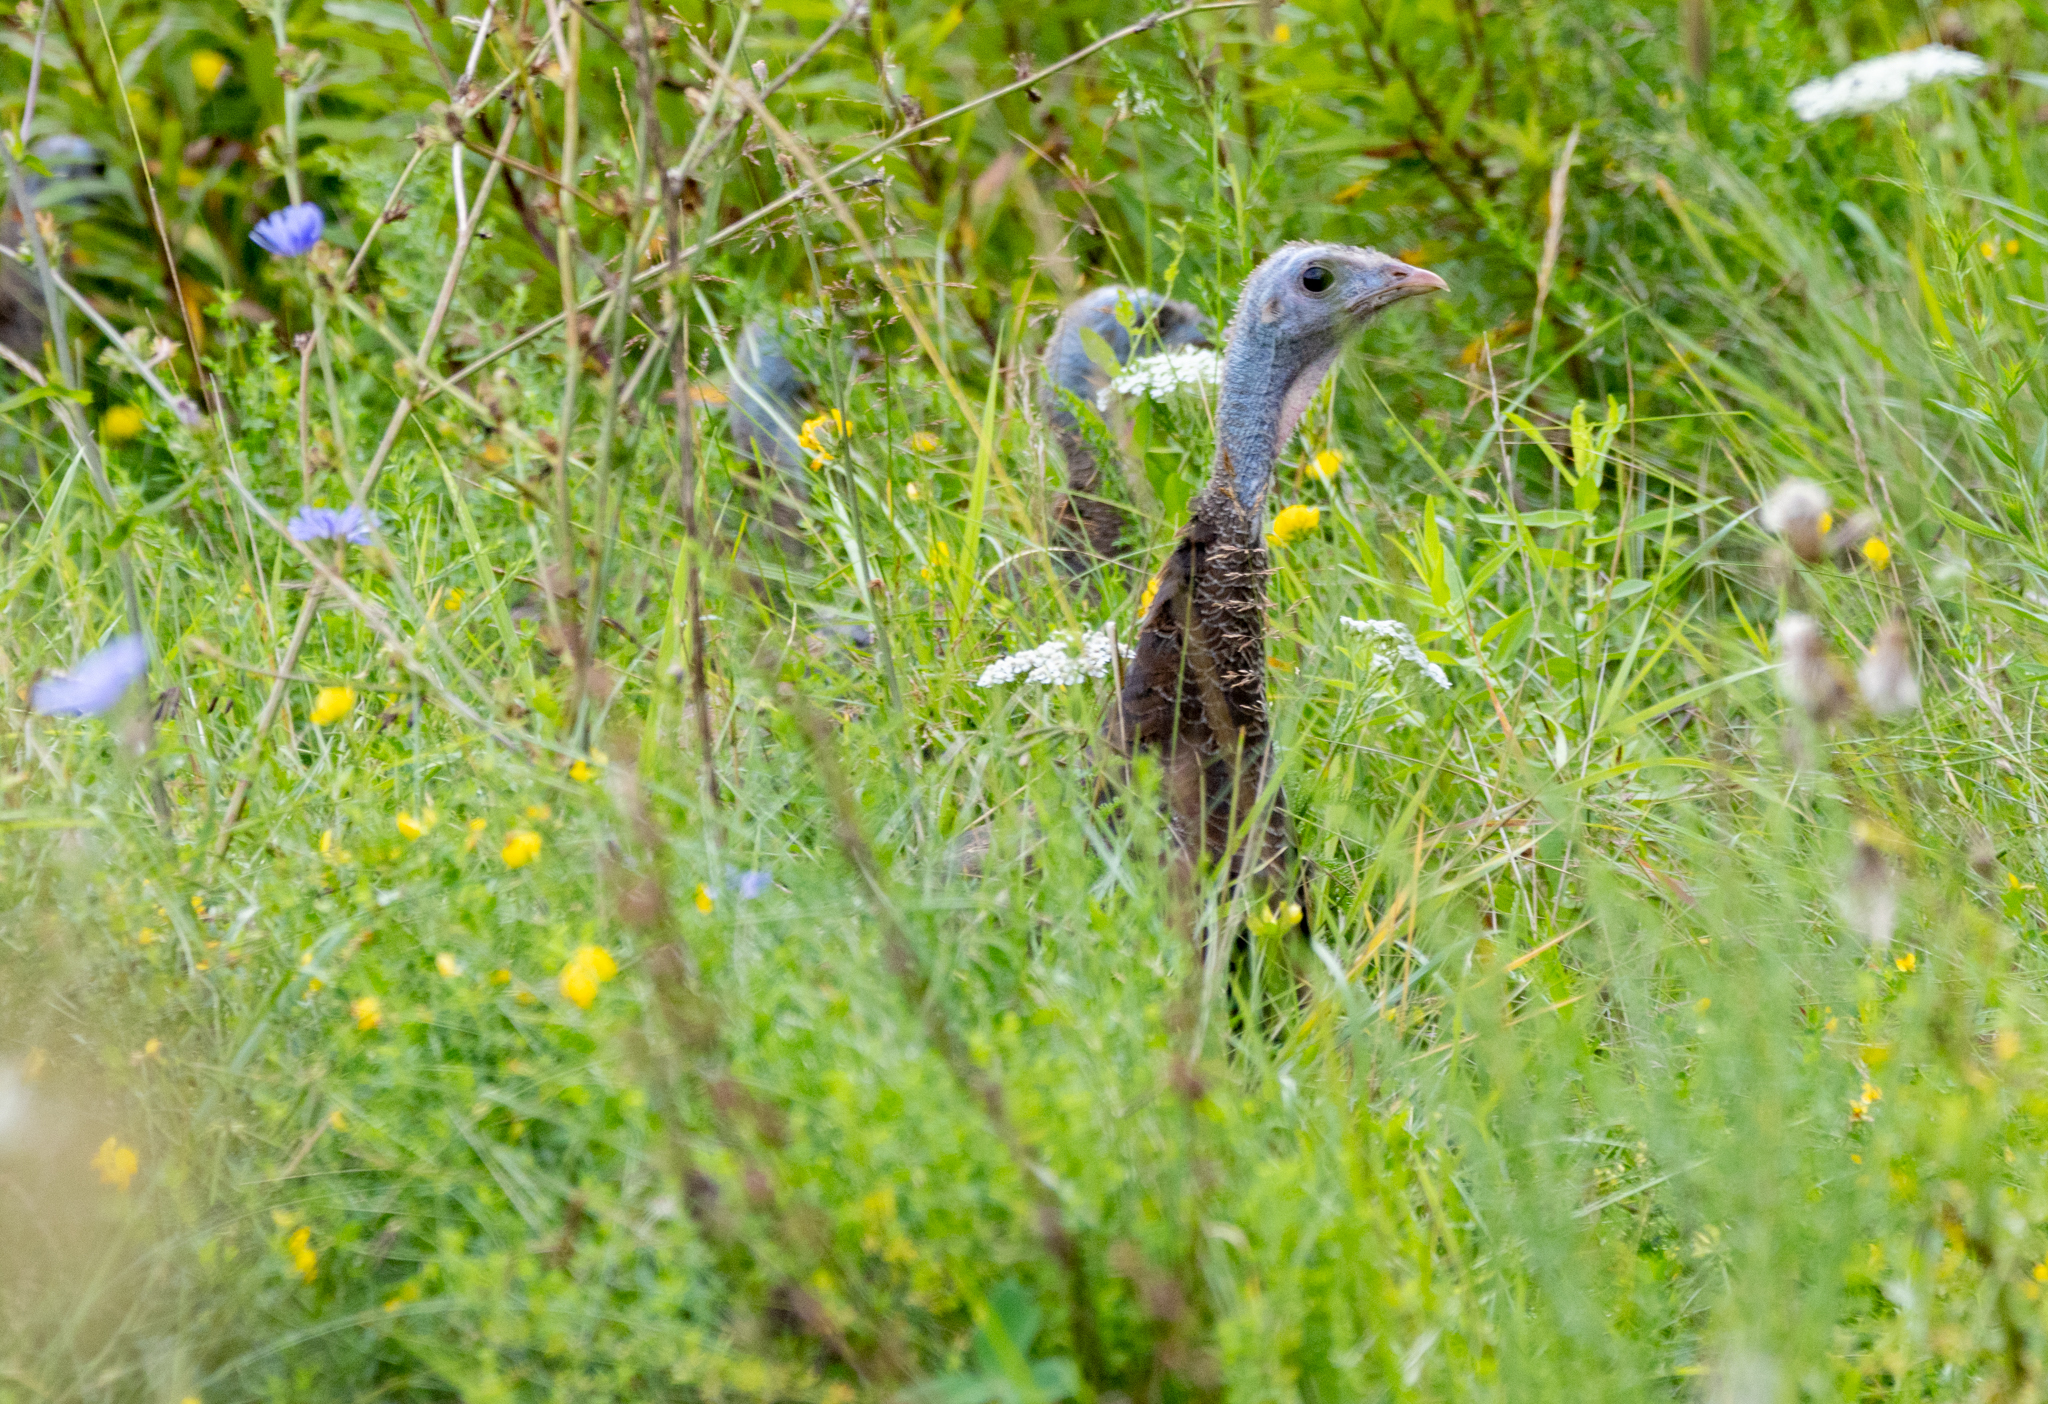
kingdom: Animalia
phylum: Chordata
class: Aves
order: Galliformes
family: Phasianidae
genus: Meleagris
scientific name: Meleagris gallopavo
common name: Wild turkey
